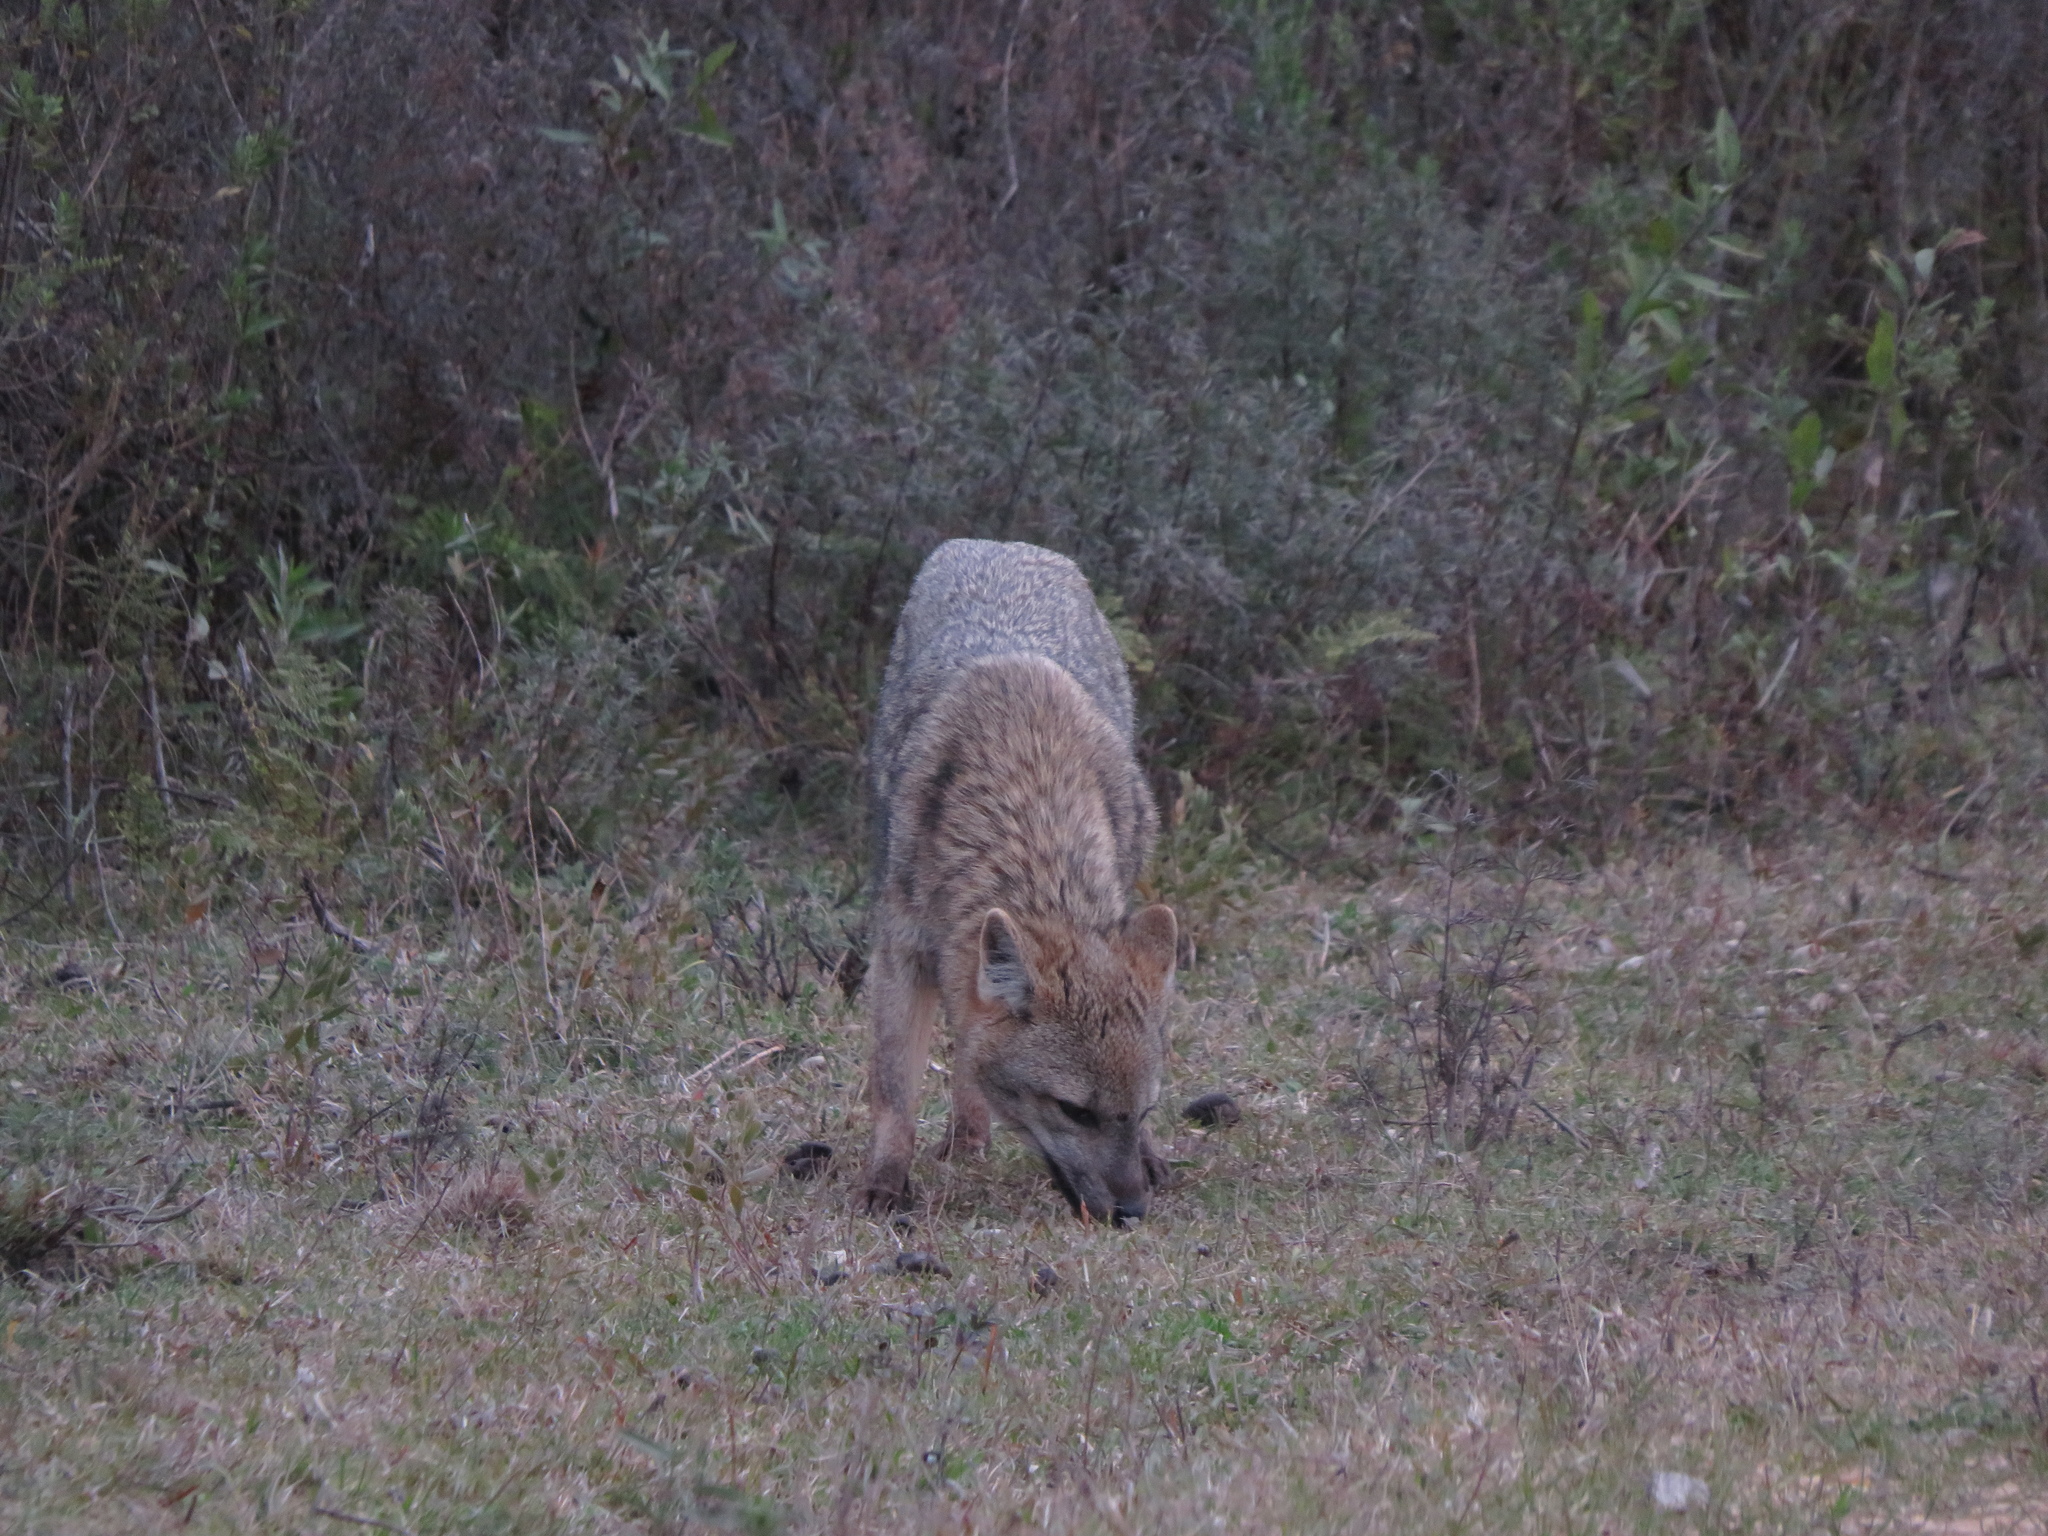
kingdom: Animalia
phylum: Chordata
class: Mammalia
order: Carnivora
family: Canidae
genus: Cerdocyon
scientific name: Cerdocyon thous
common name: Crab-eating fox
